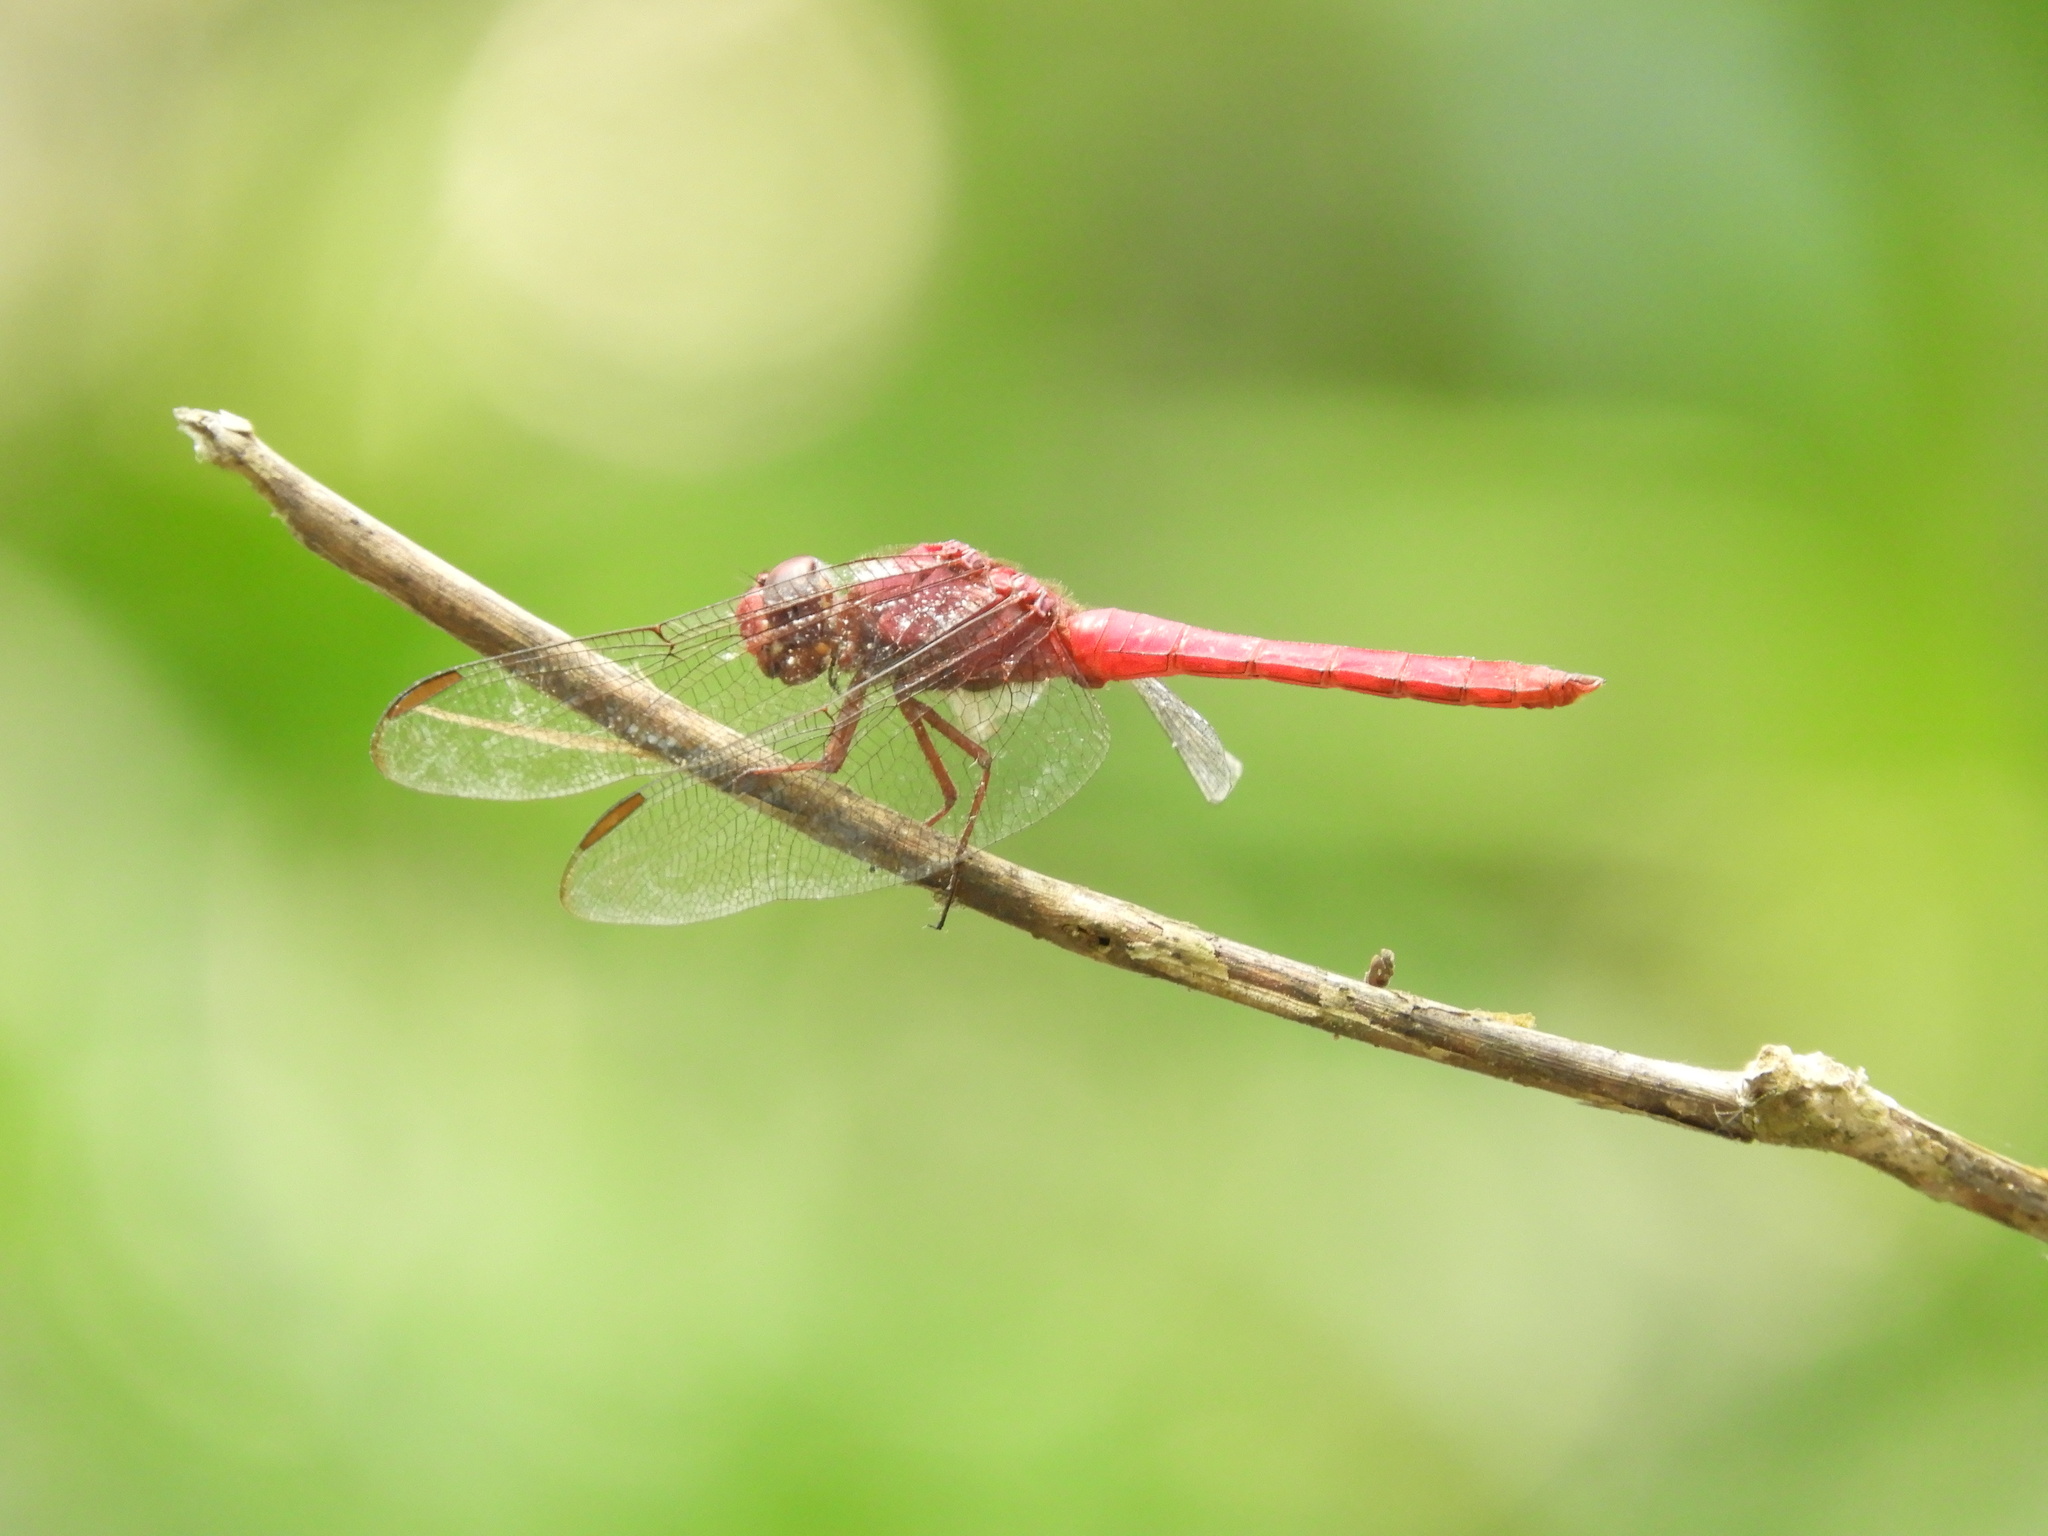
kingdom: Animalia
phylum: Arthropoda
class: Insecta
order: Odonata
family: Libellulidae
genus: Orthemis
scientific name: Orthemis discolor
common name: Carmine skimmer
